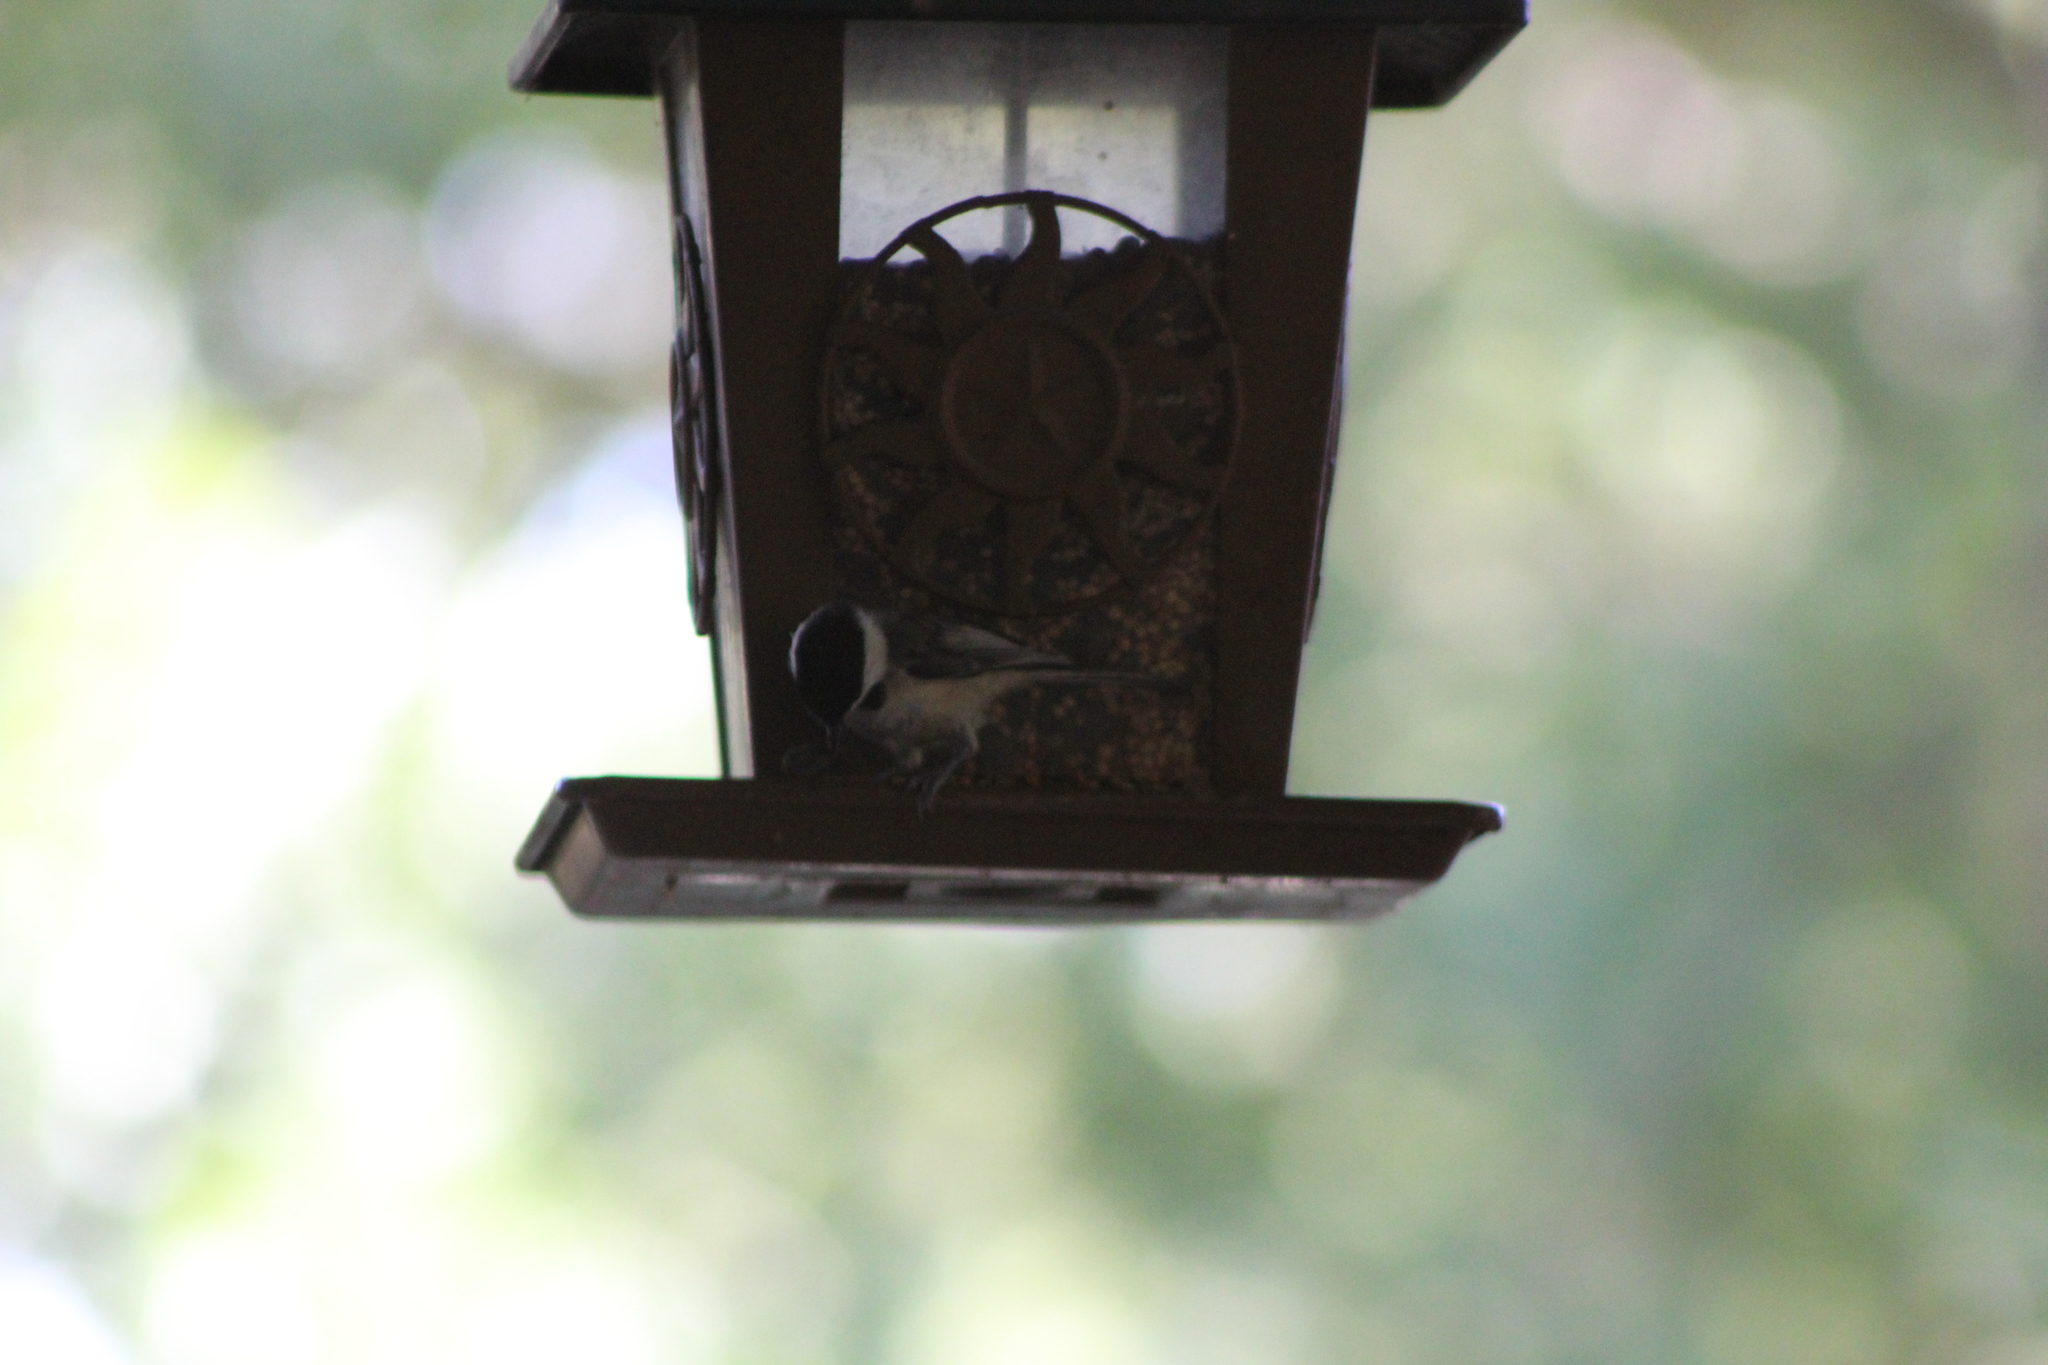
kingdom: Animalia
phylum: Chordata
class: Aves
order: Passeriformes
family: Paridae
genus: Poecile
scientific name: Poecile carolinensis
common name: Carolina chickadee
